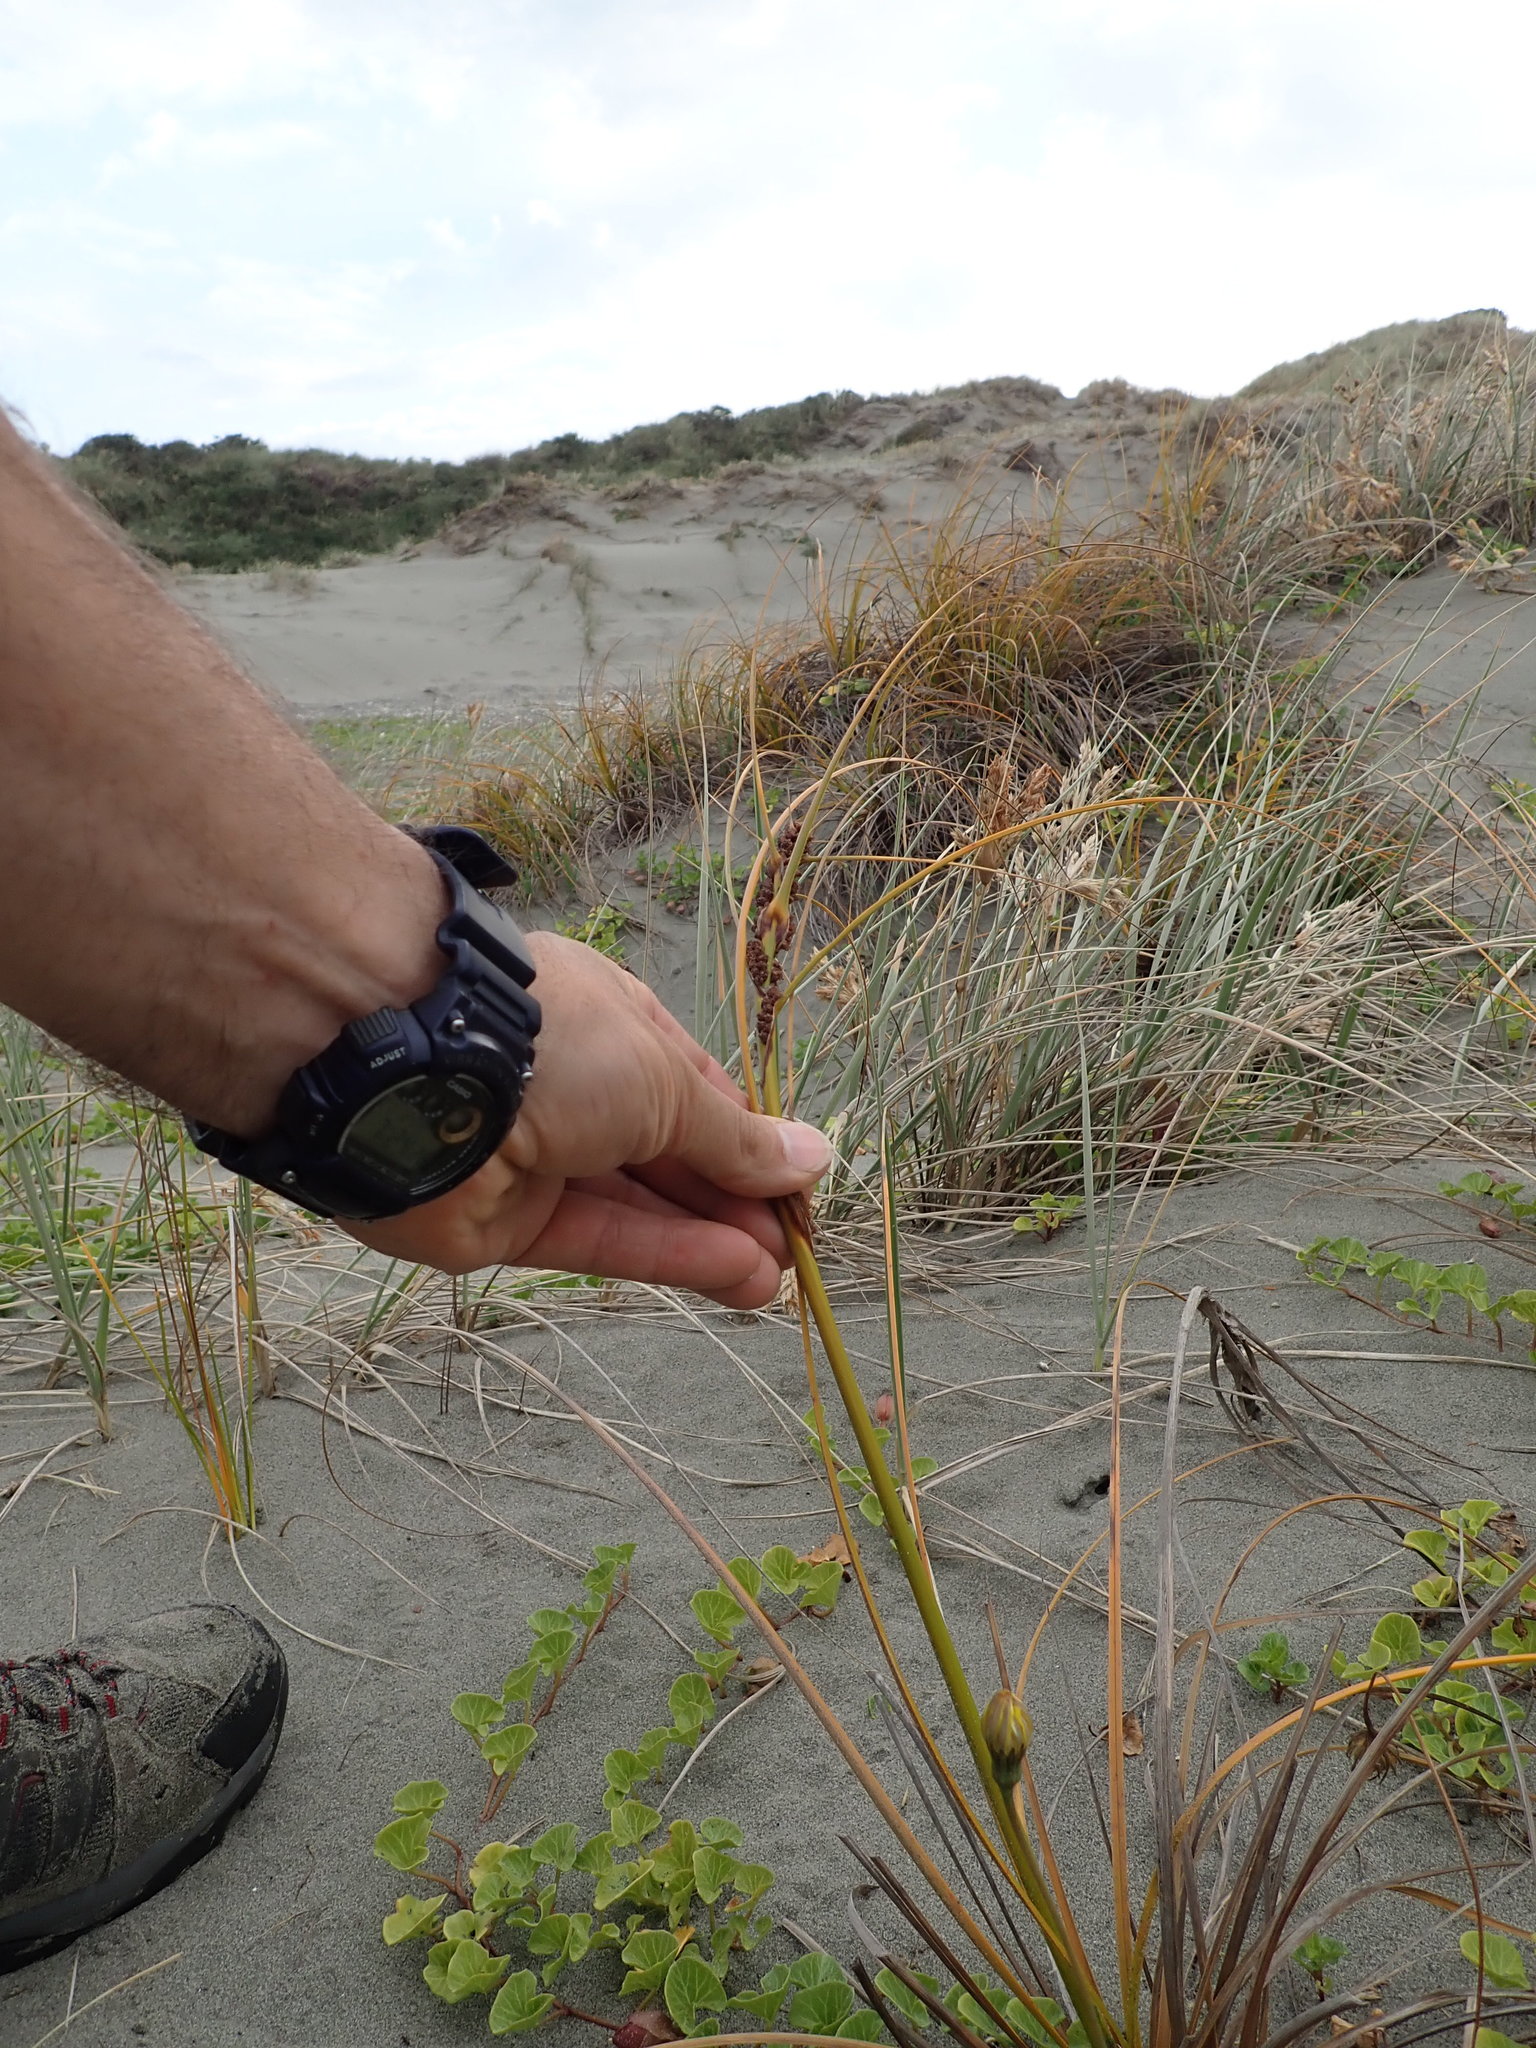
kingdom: Plantae
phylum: Tracheophyta
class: Liliopsida
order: Poales
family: Cyperaceae
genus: Ficinia
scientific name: Ficinia spiralis
